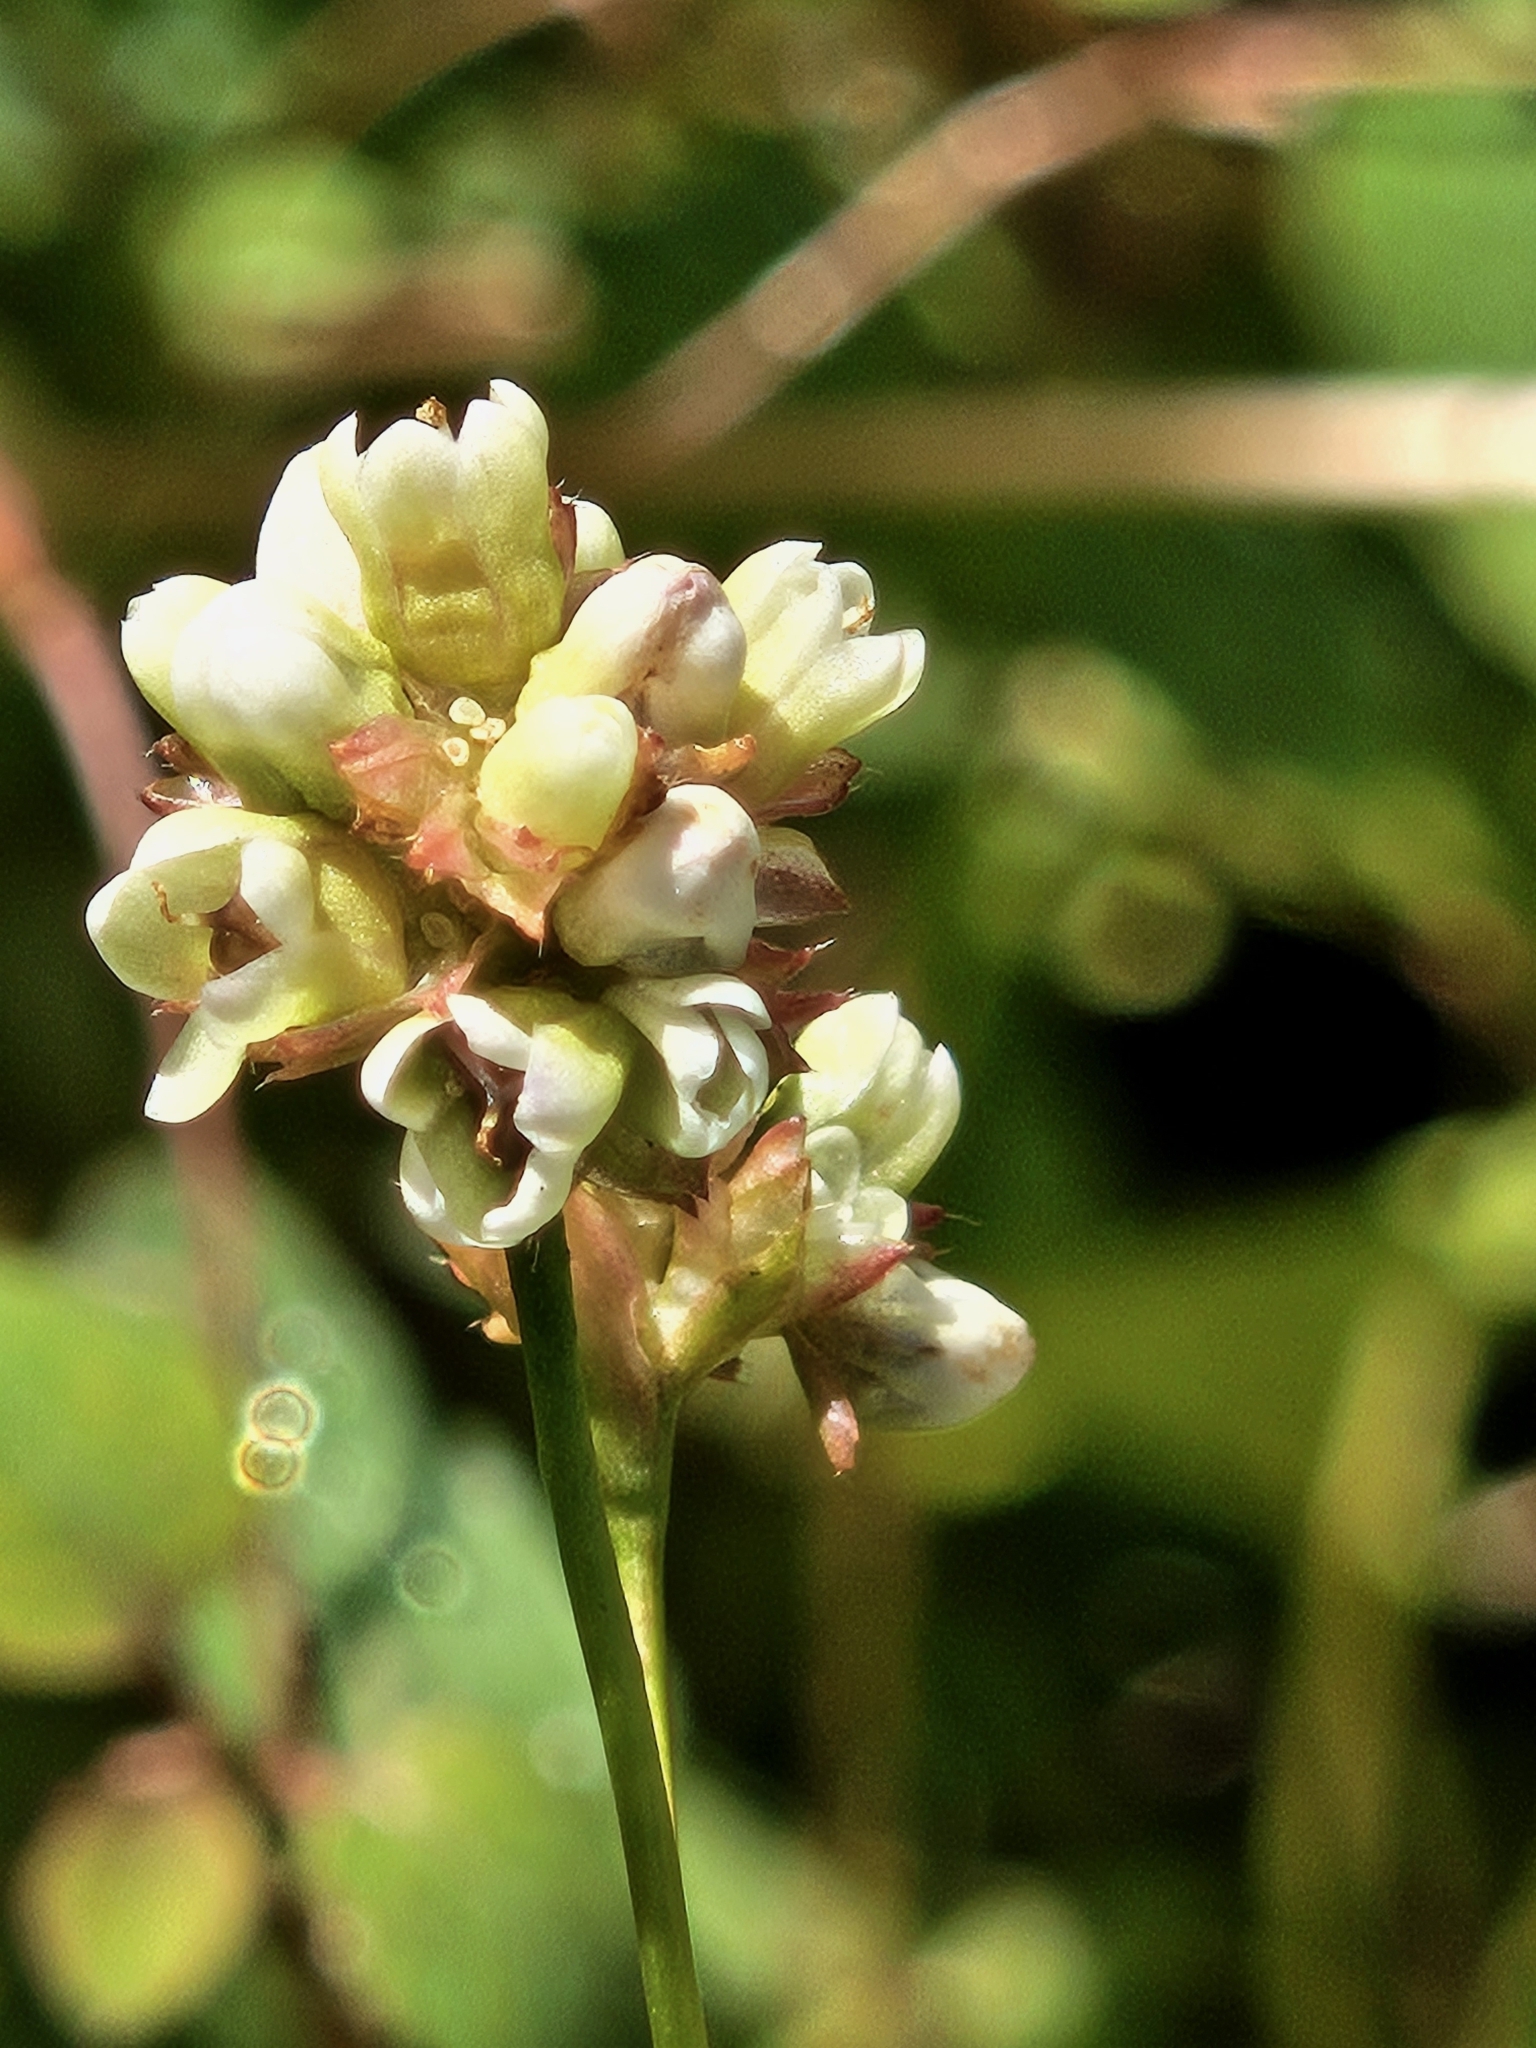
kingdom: Plantae
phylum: Tracheophyta
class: Magnoliopsida
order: Caryophyllales
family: Polygonaceae
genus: Persicaria
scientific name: Persicaria sagittata
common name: American tearthumb
